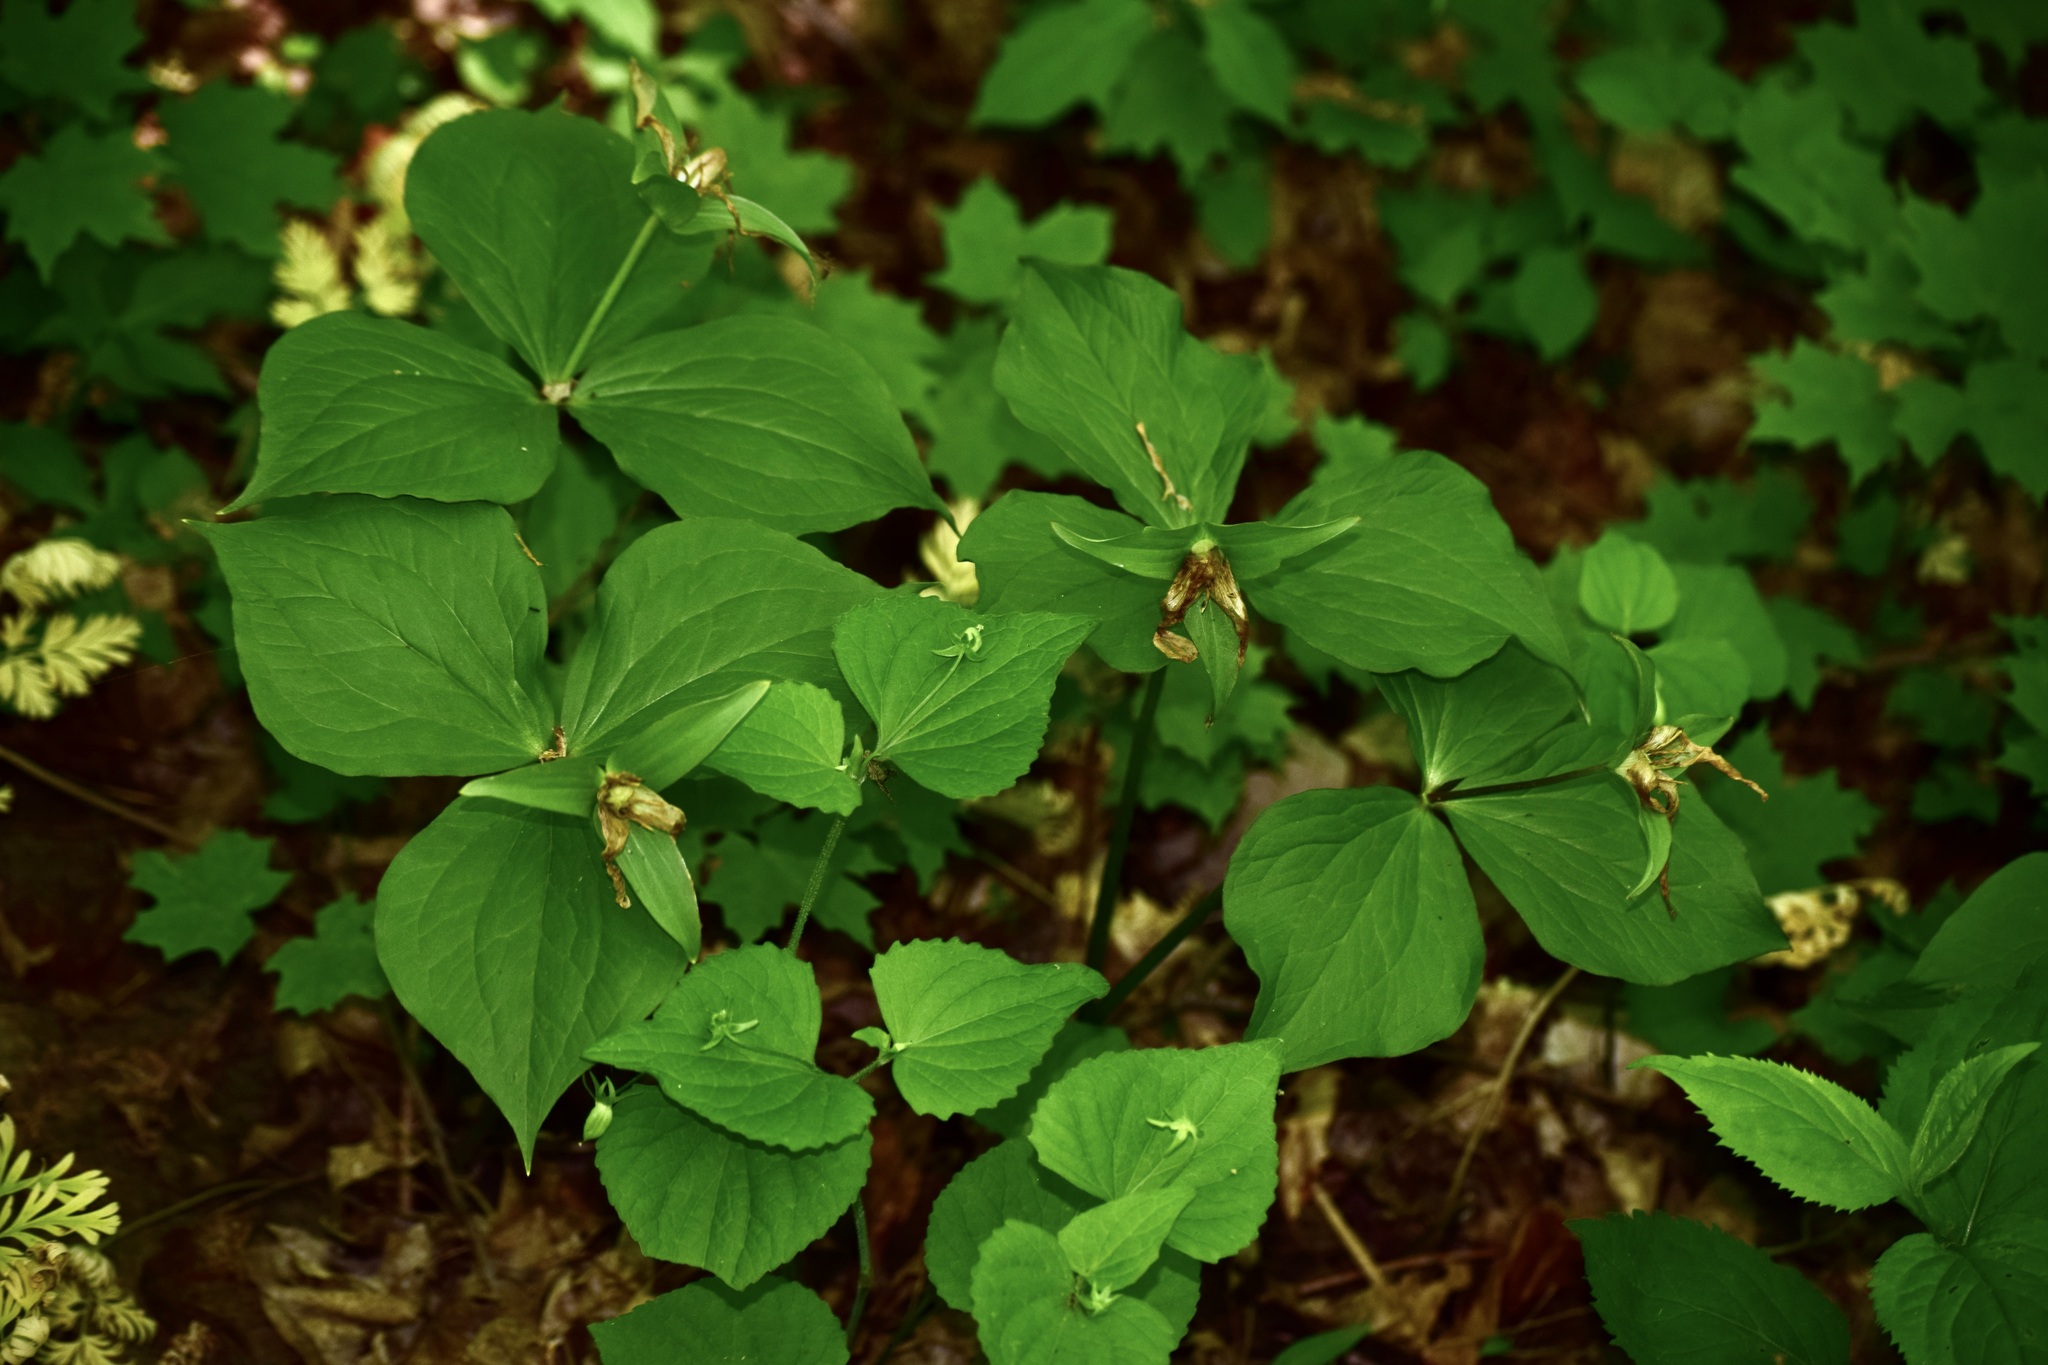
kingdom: Plantae
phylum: Tracheophyta
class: Liliopsida
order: Liliales
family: Melanthiaceae
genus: Trillium
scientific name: Trillium grandiflorum
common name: Great white trillium
